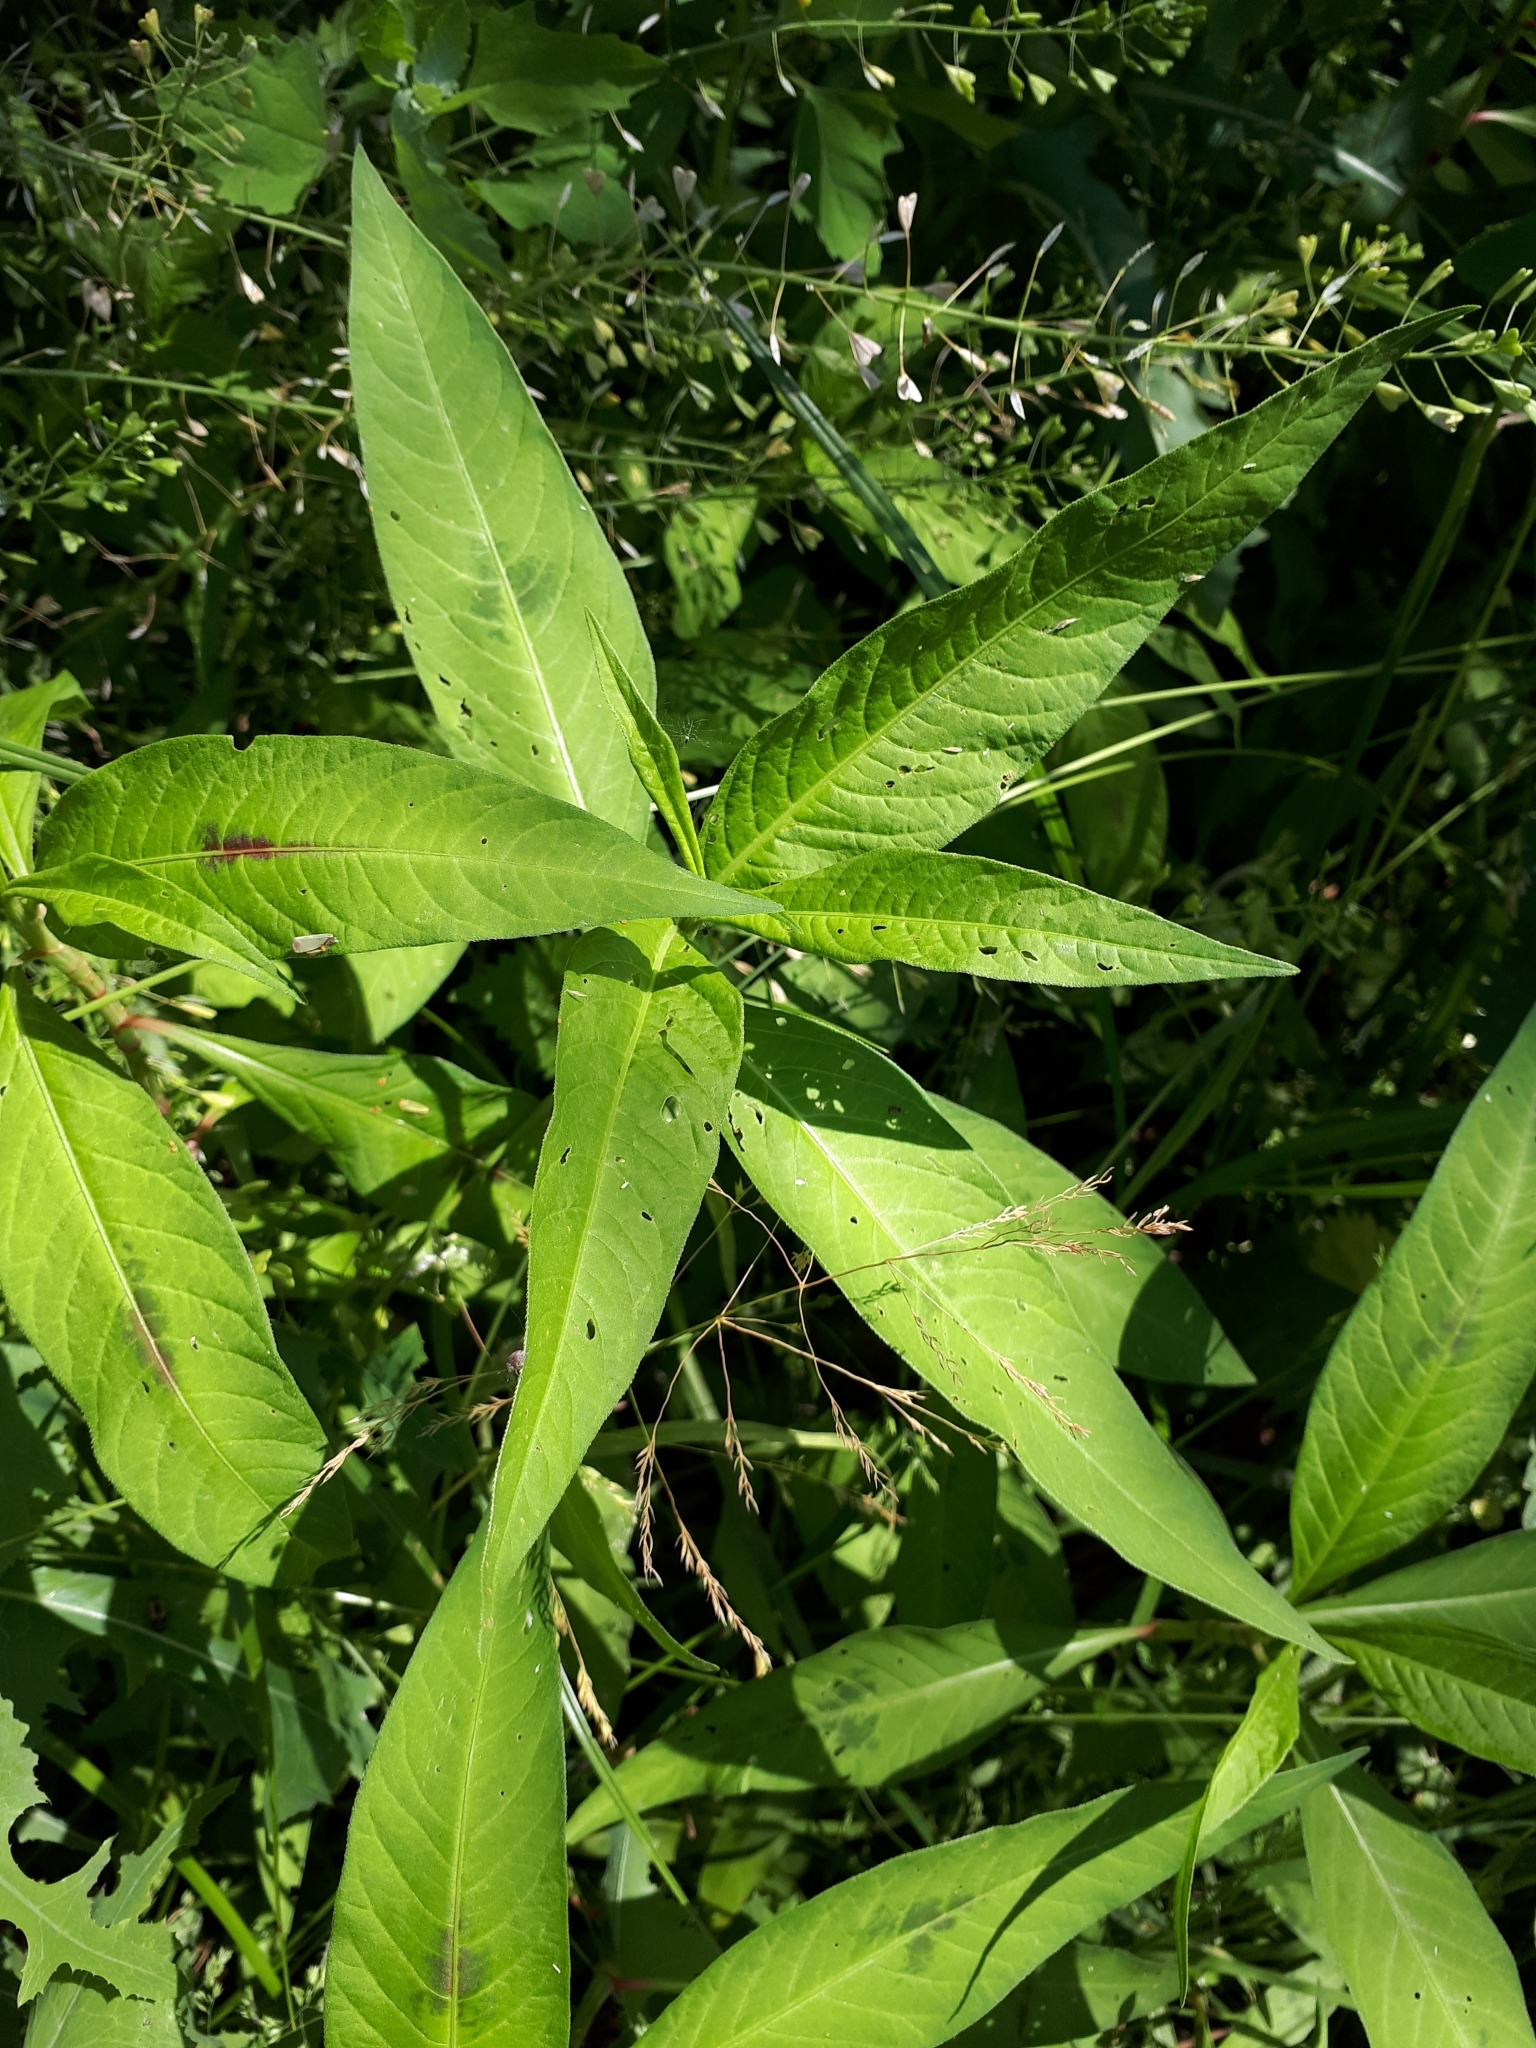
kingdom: Plantae
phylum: Tracheophyta
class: Magnoliopsida
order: Caryophyllales
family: Polygonaceae
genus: Persicaria
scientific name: Persicaria lapathifolia
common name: Curlytop knotweed
